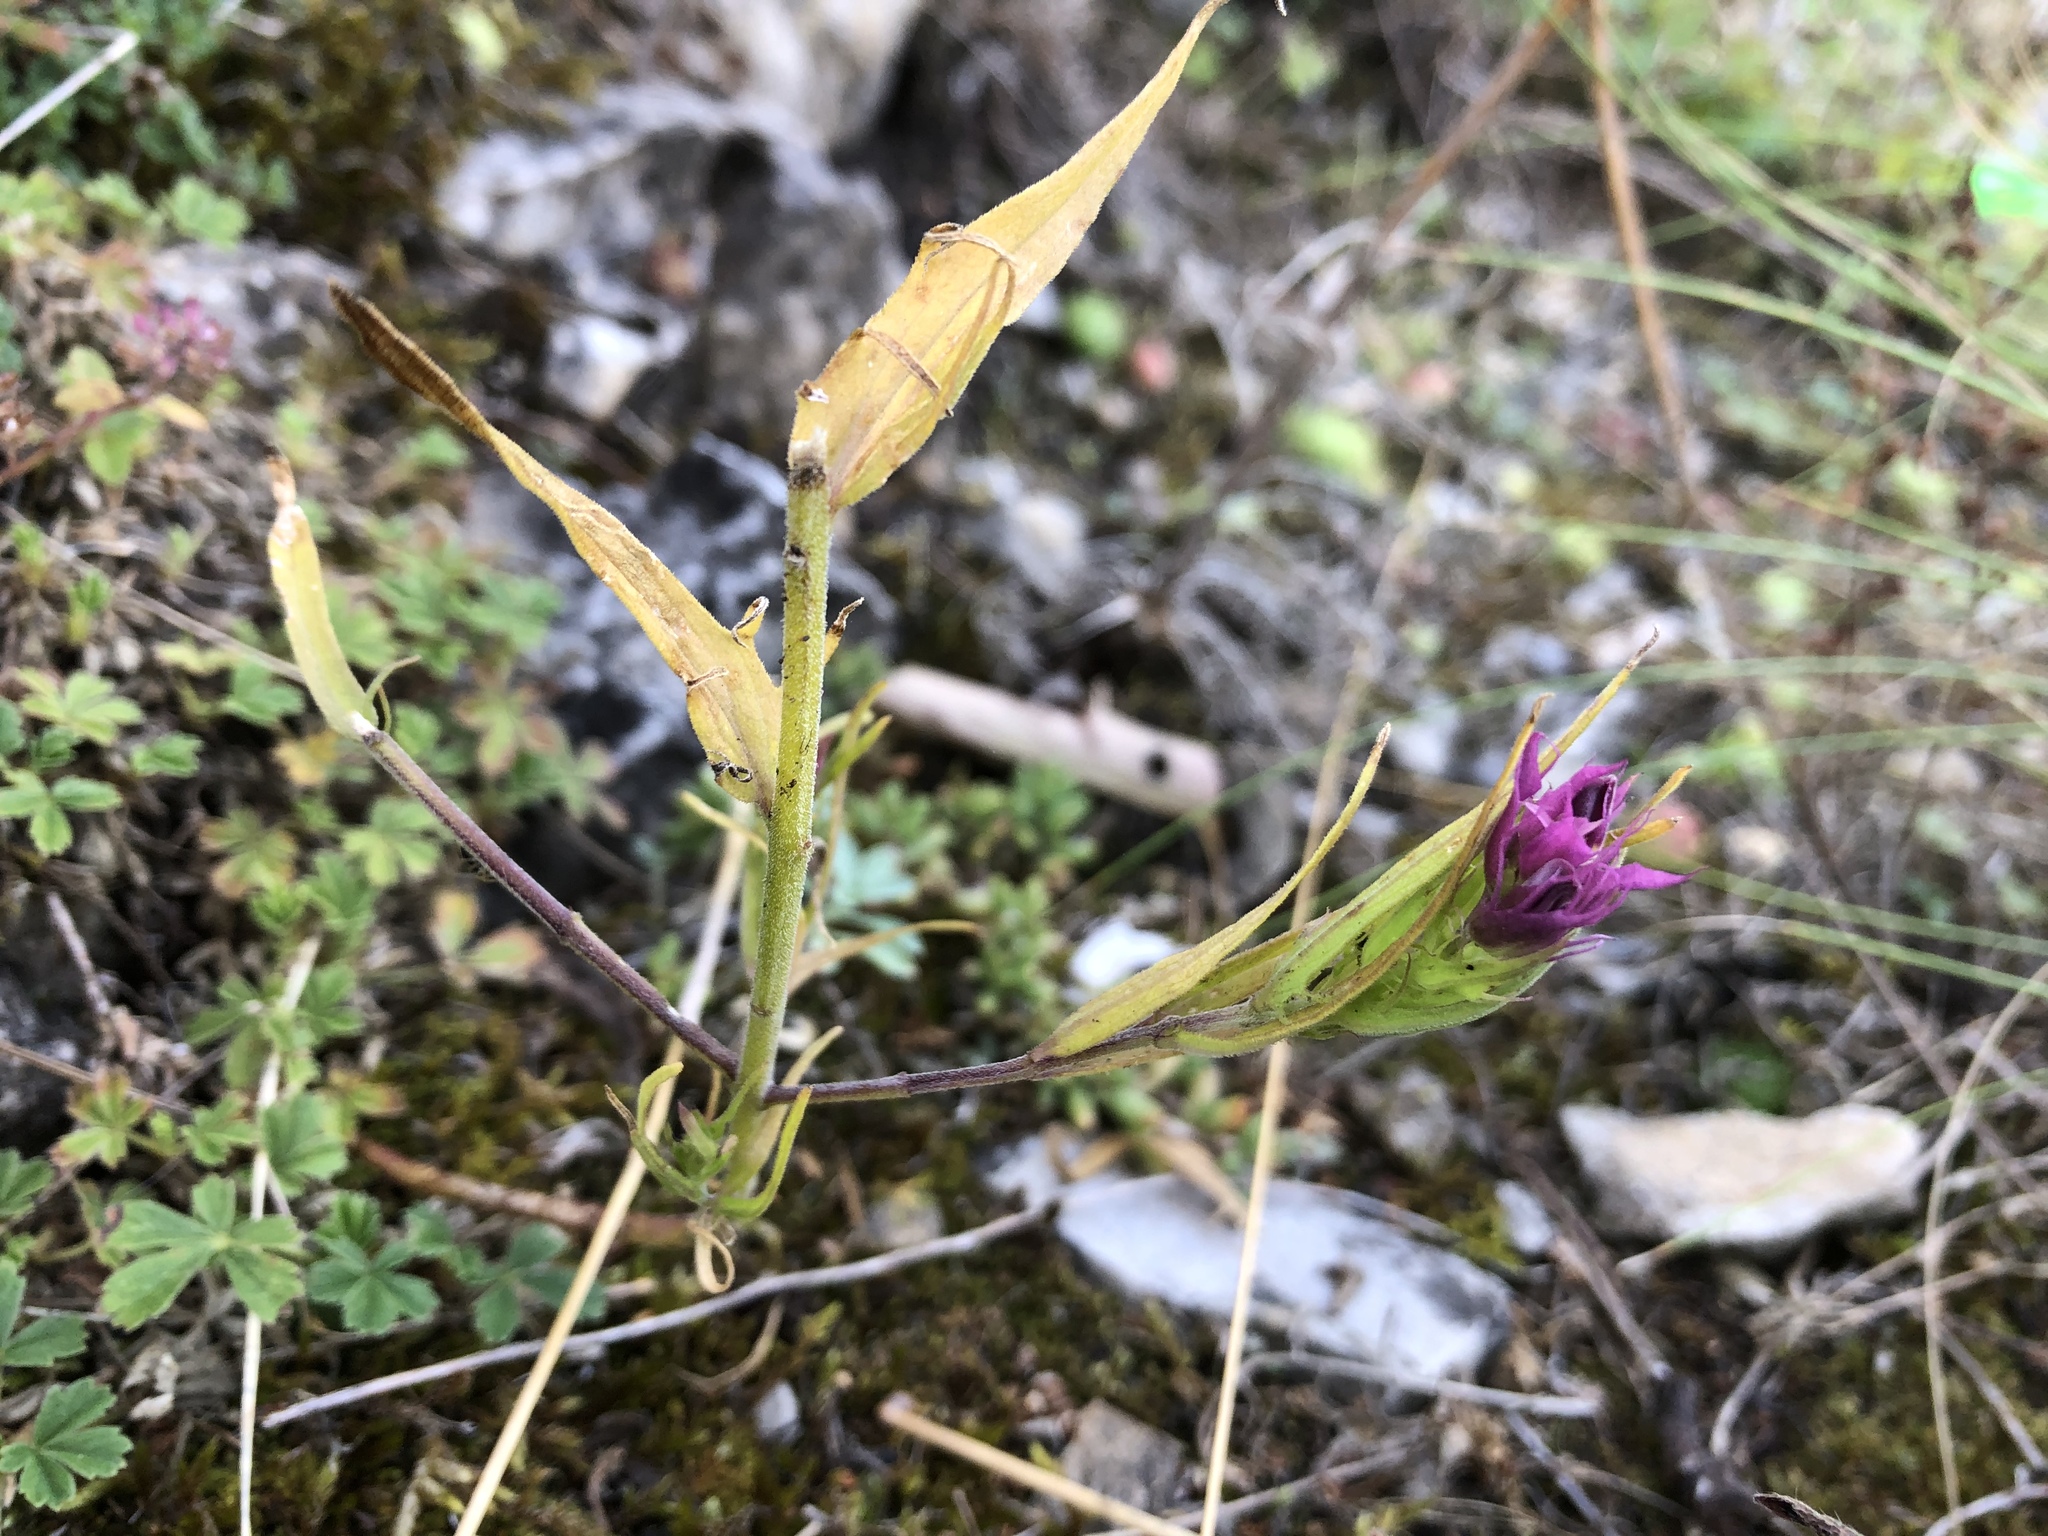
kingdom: Plantae
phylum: Tracheophyta
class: Magnoliopsida
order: Lamiales
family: Orobanchaceae
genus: Melampyrum
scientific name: Melampyrum arvense
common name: Field cow-wheat
